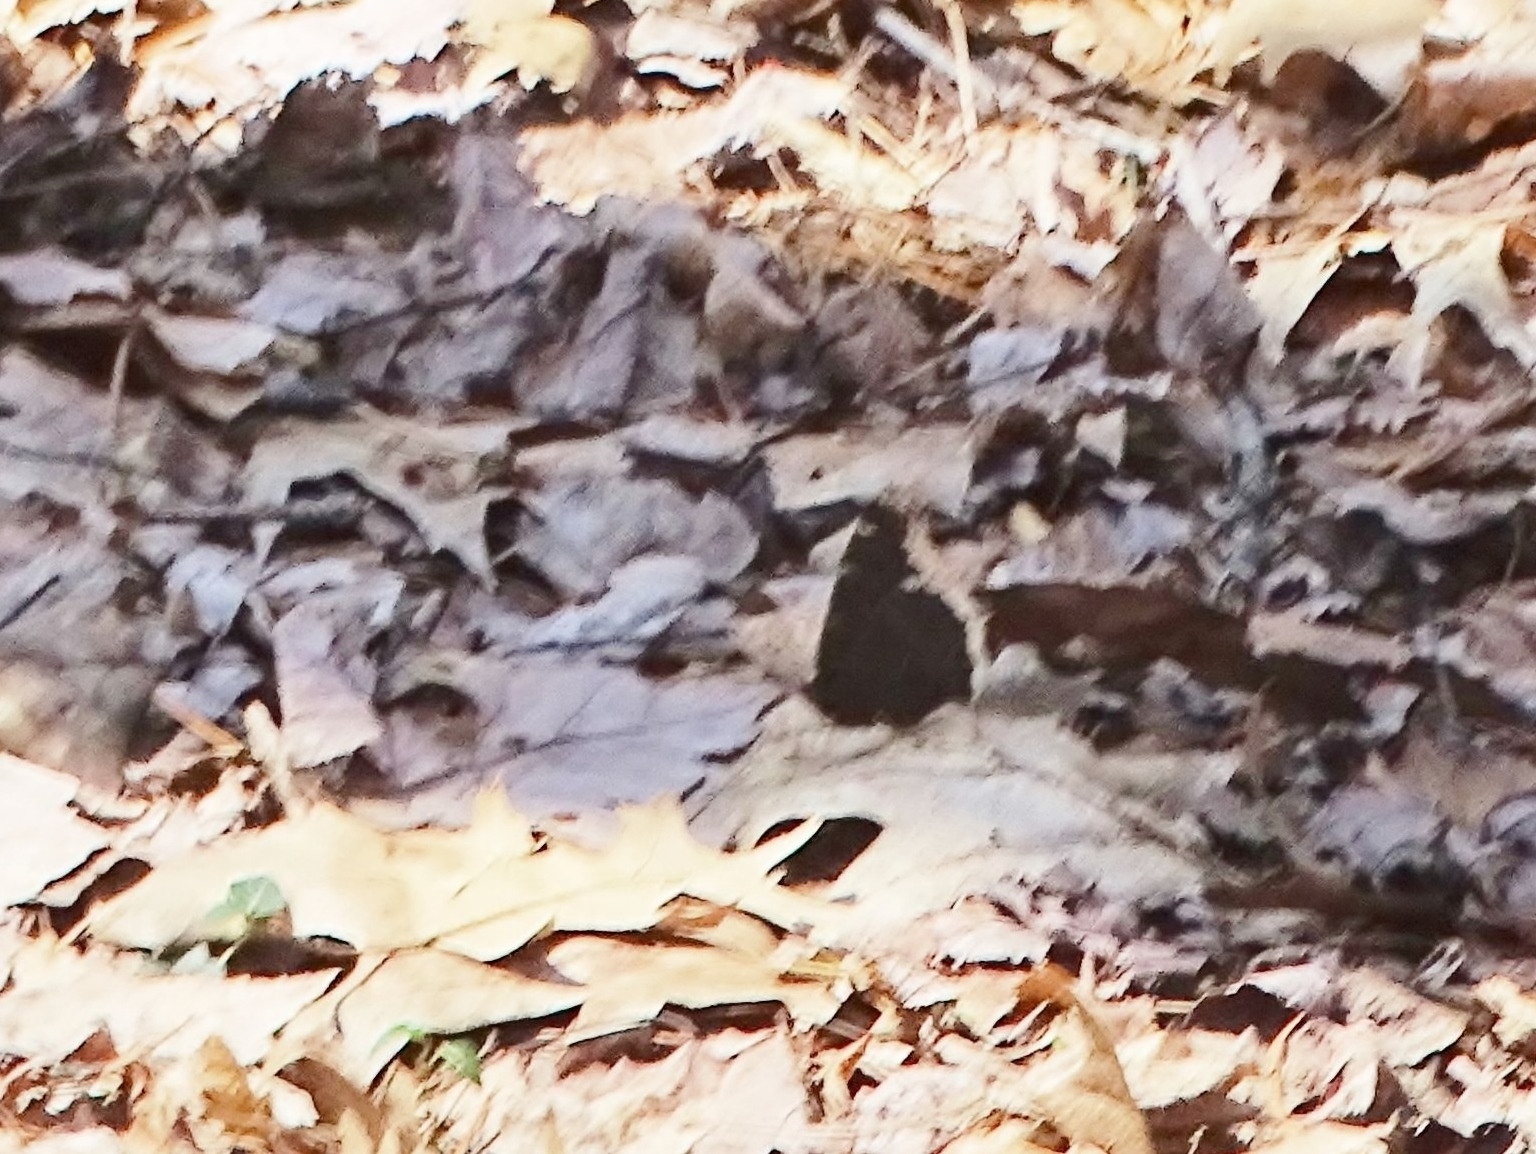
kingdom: Animalia
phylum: Arthropoda
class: Insecta
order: Lepidoptera
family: Nymphalidae
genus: Nymphalis
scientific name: Nymphalis antiopa
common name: Camberwell beauty
